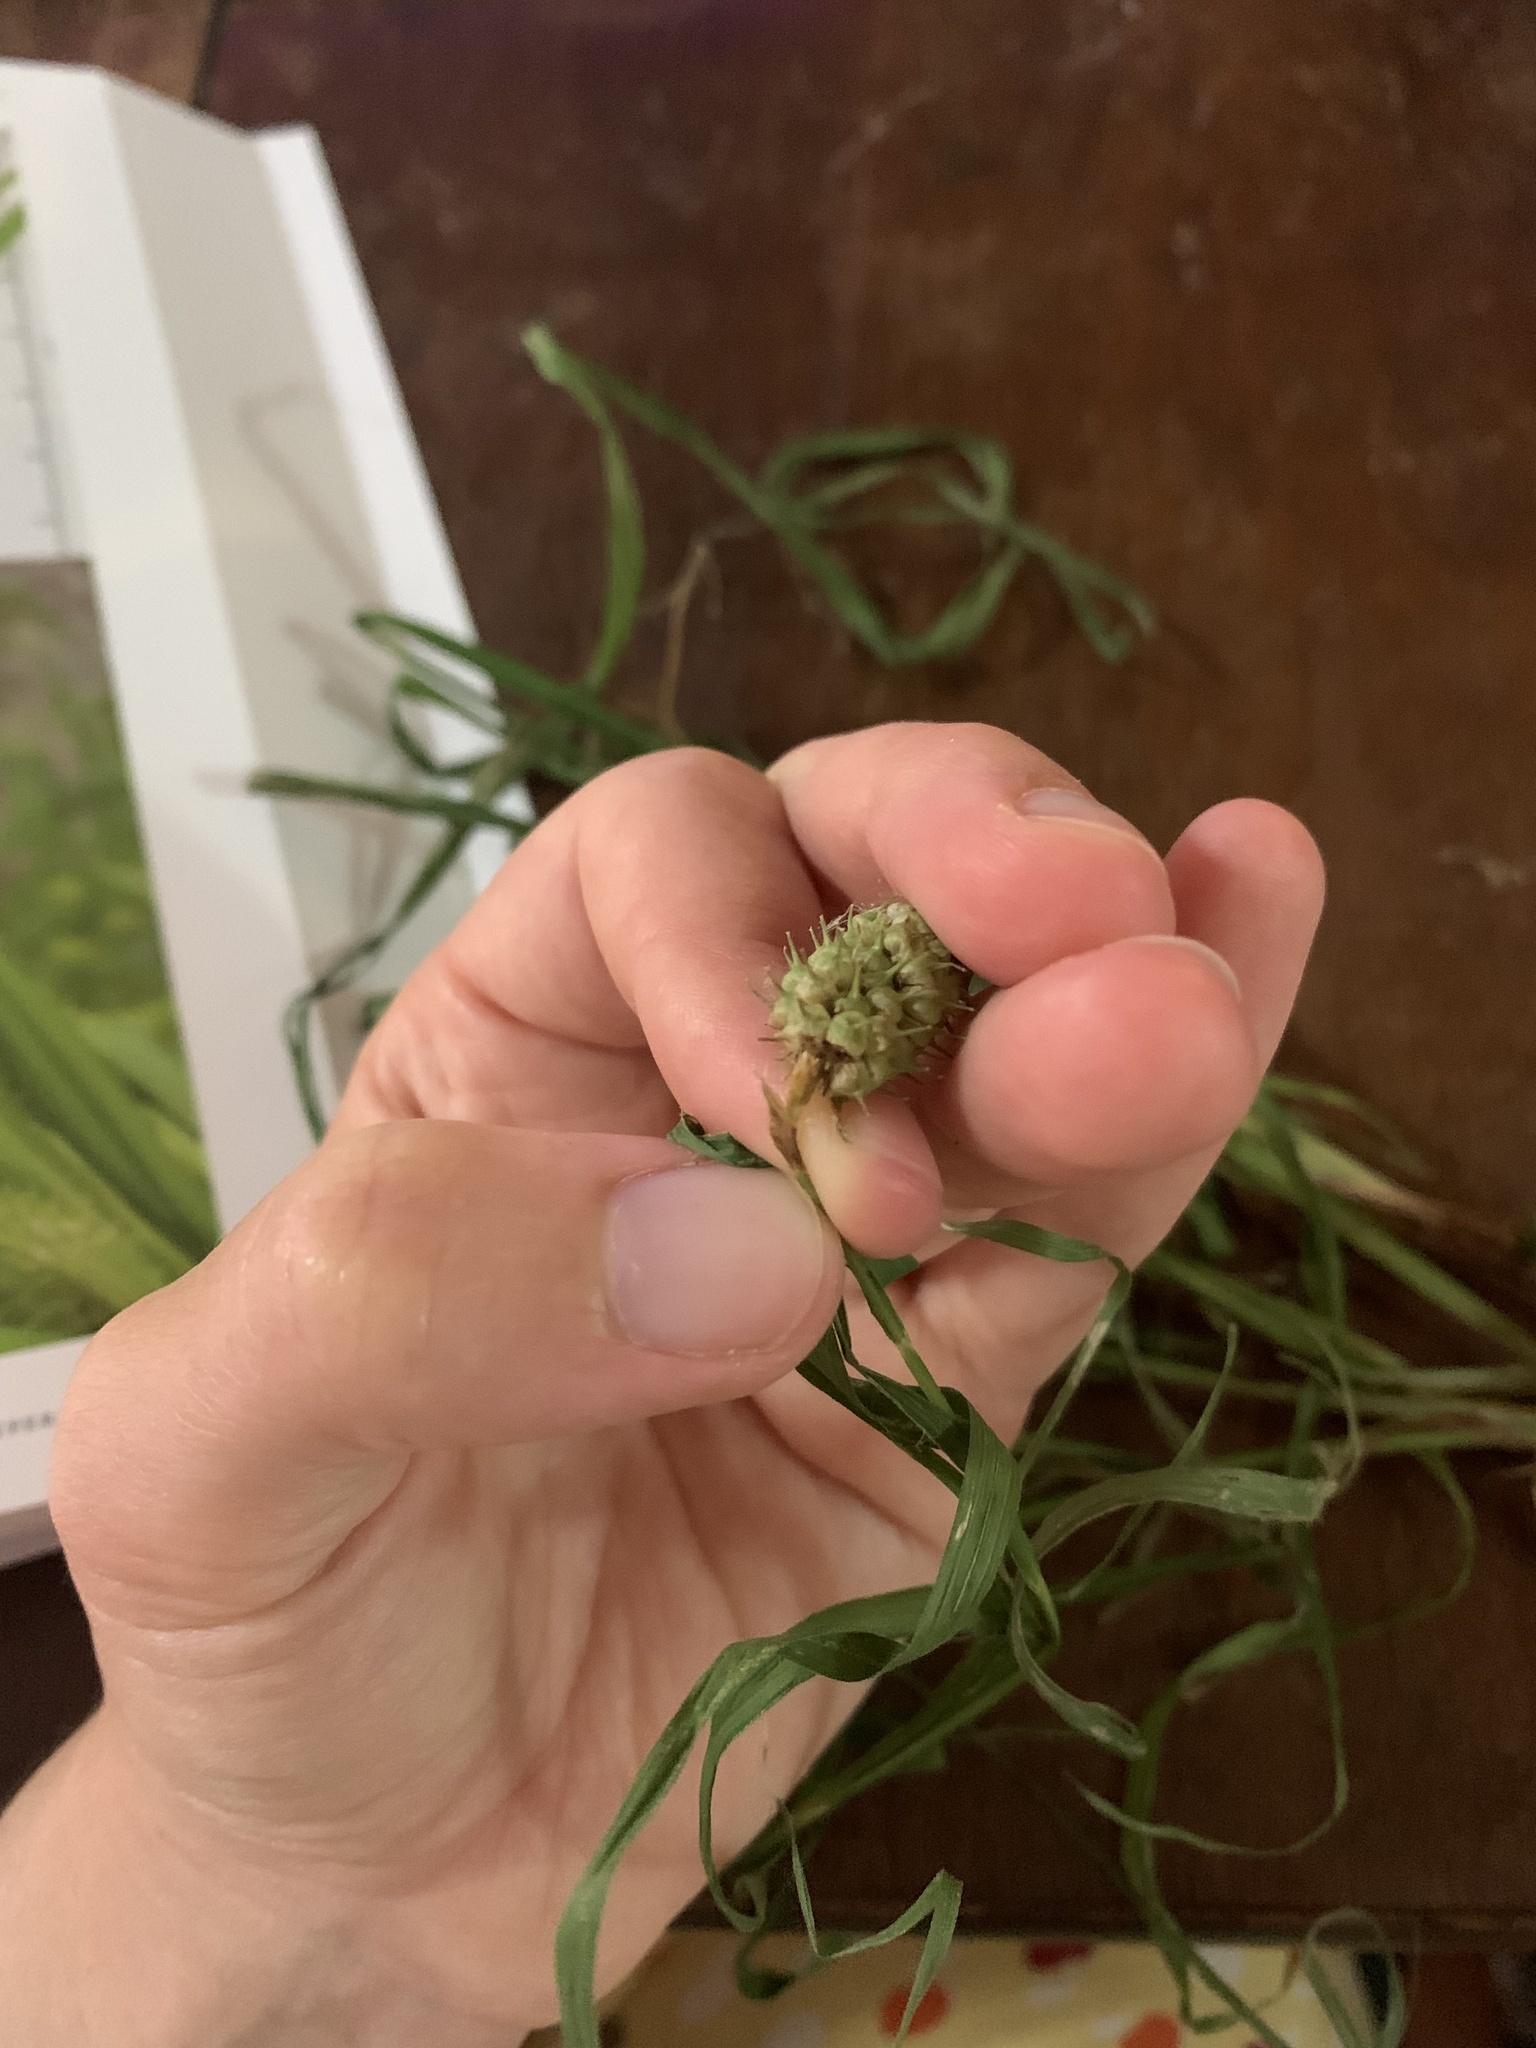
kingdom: Plantae
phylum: Tracheophyta
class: Liliopsida
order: Poales
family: Cyperaceae
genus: Carex
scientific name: Carex typhina
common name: Cattail sedge
